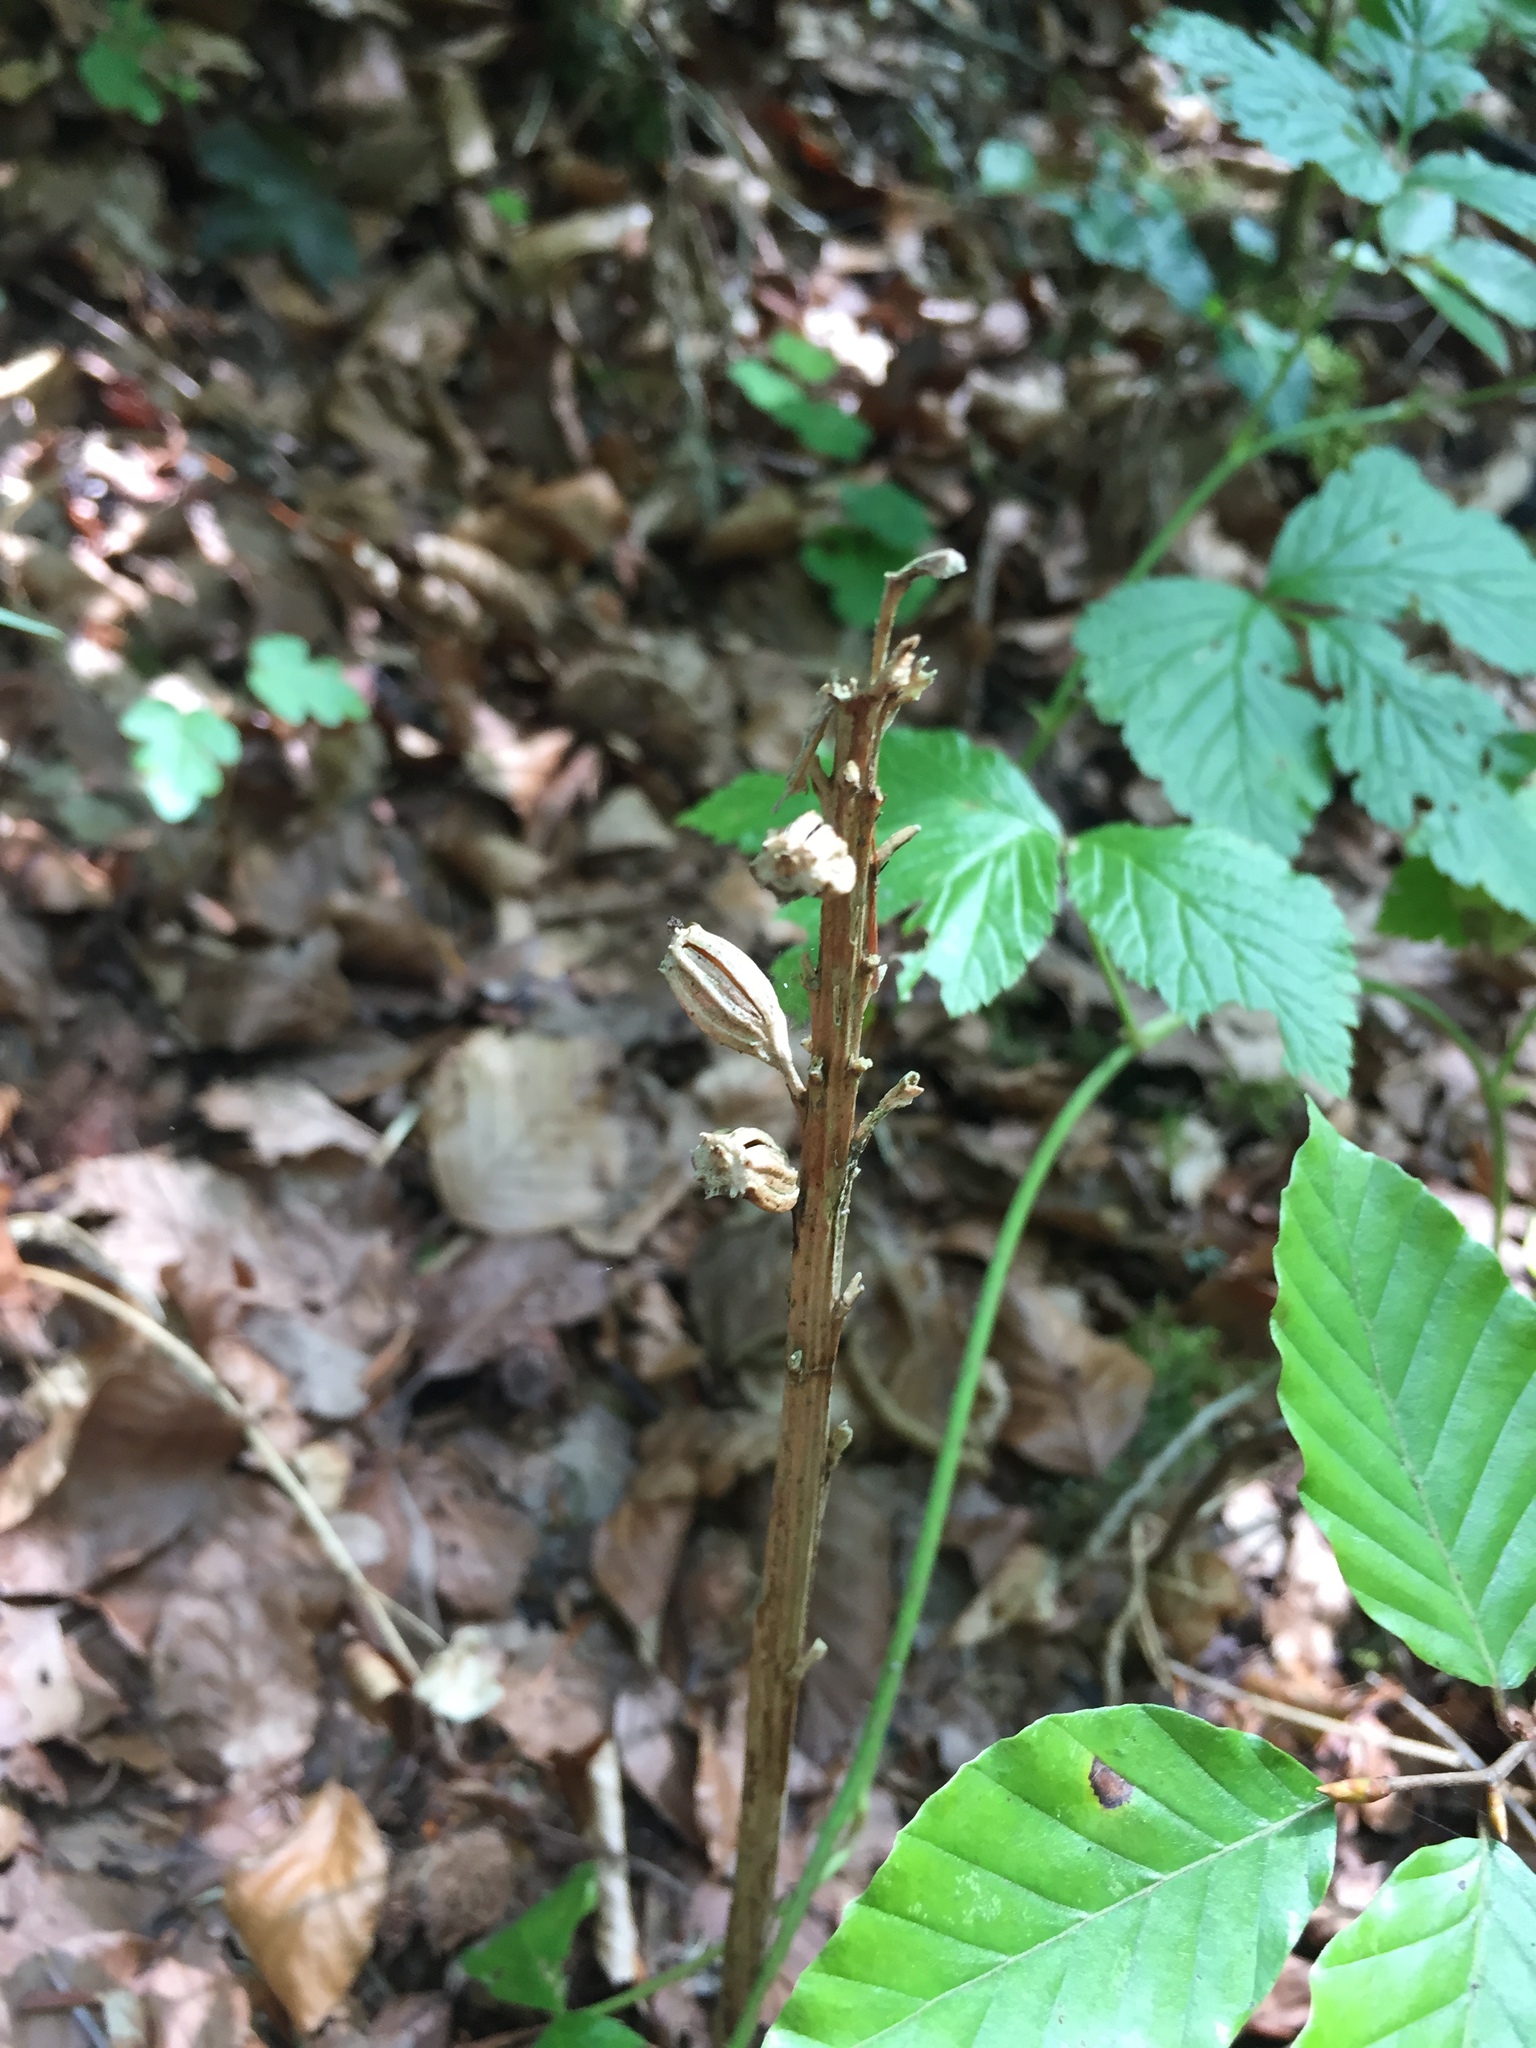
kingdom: Plantae
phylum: Tracheophyta
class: Liliopsida
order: Asparagales
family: Orchidaceae
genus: Neottia
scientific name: Neottia nidus-avis
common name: Bird's-nest orchid
